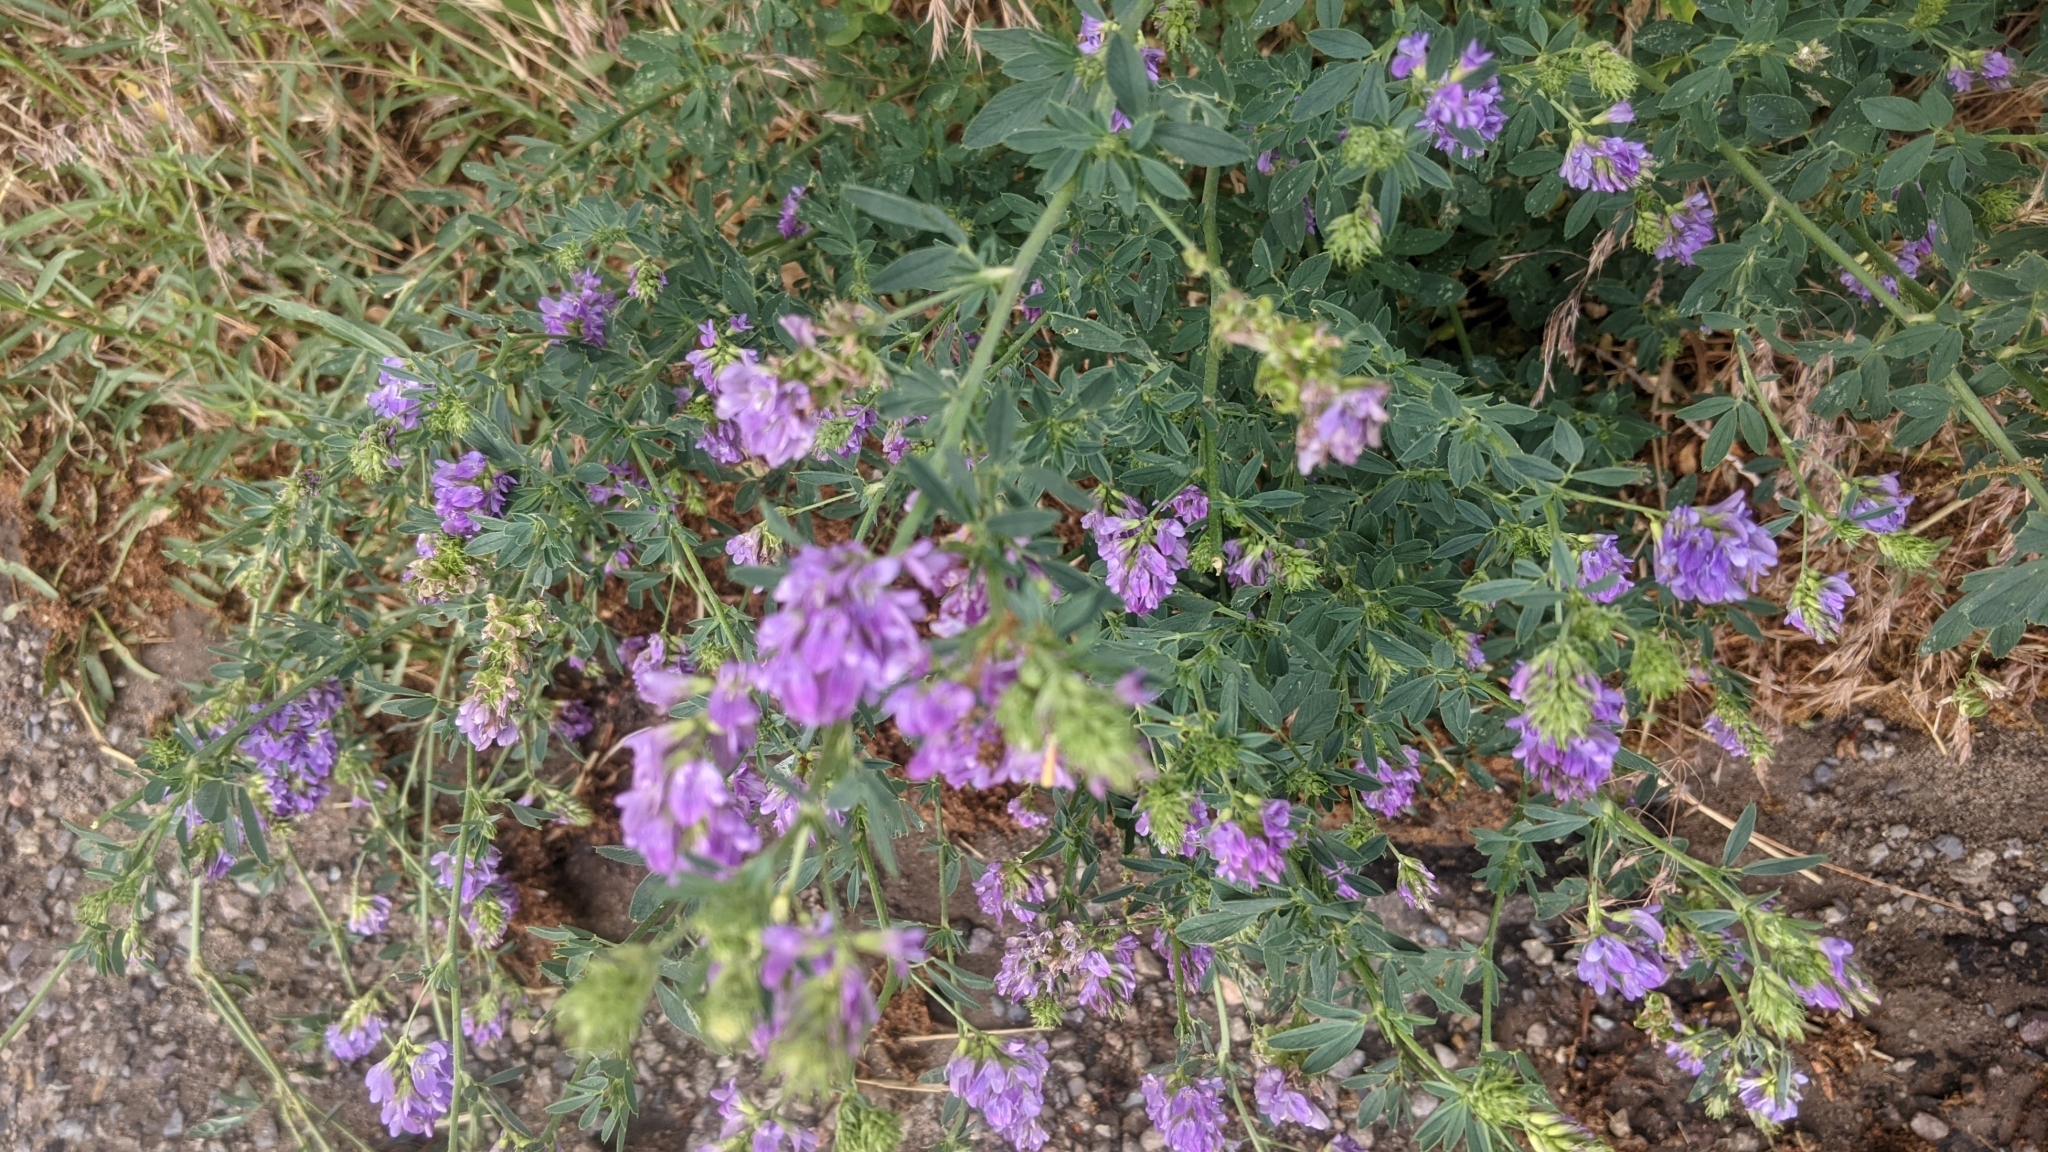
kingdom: Plantae
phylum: Tracheophyta
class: Magnoliopsida
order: Fabales
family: Fabaceae
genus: Medicago
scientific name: Medicago sativa
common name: Alfalfa
